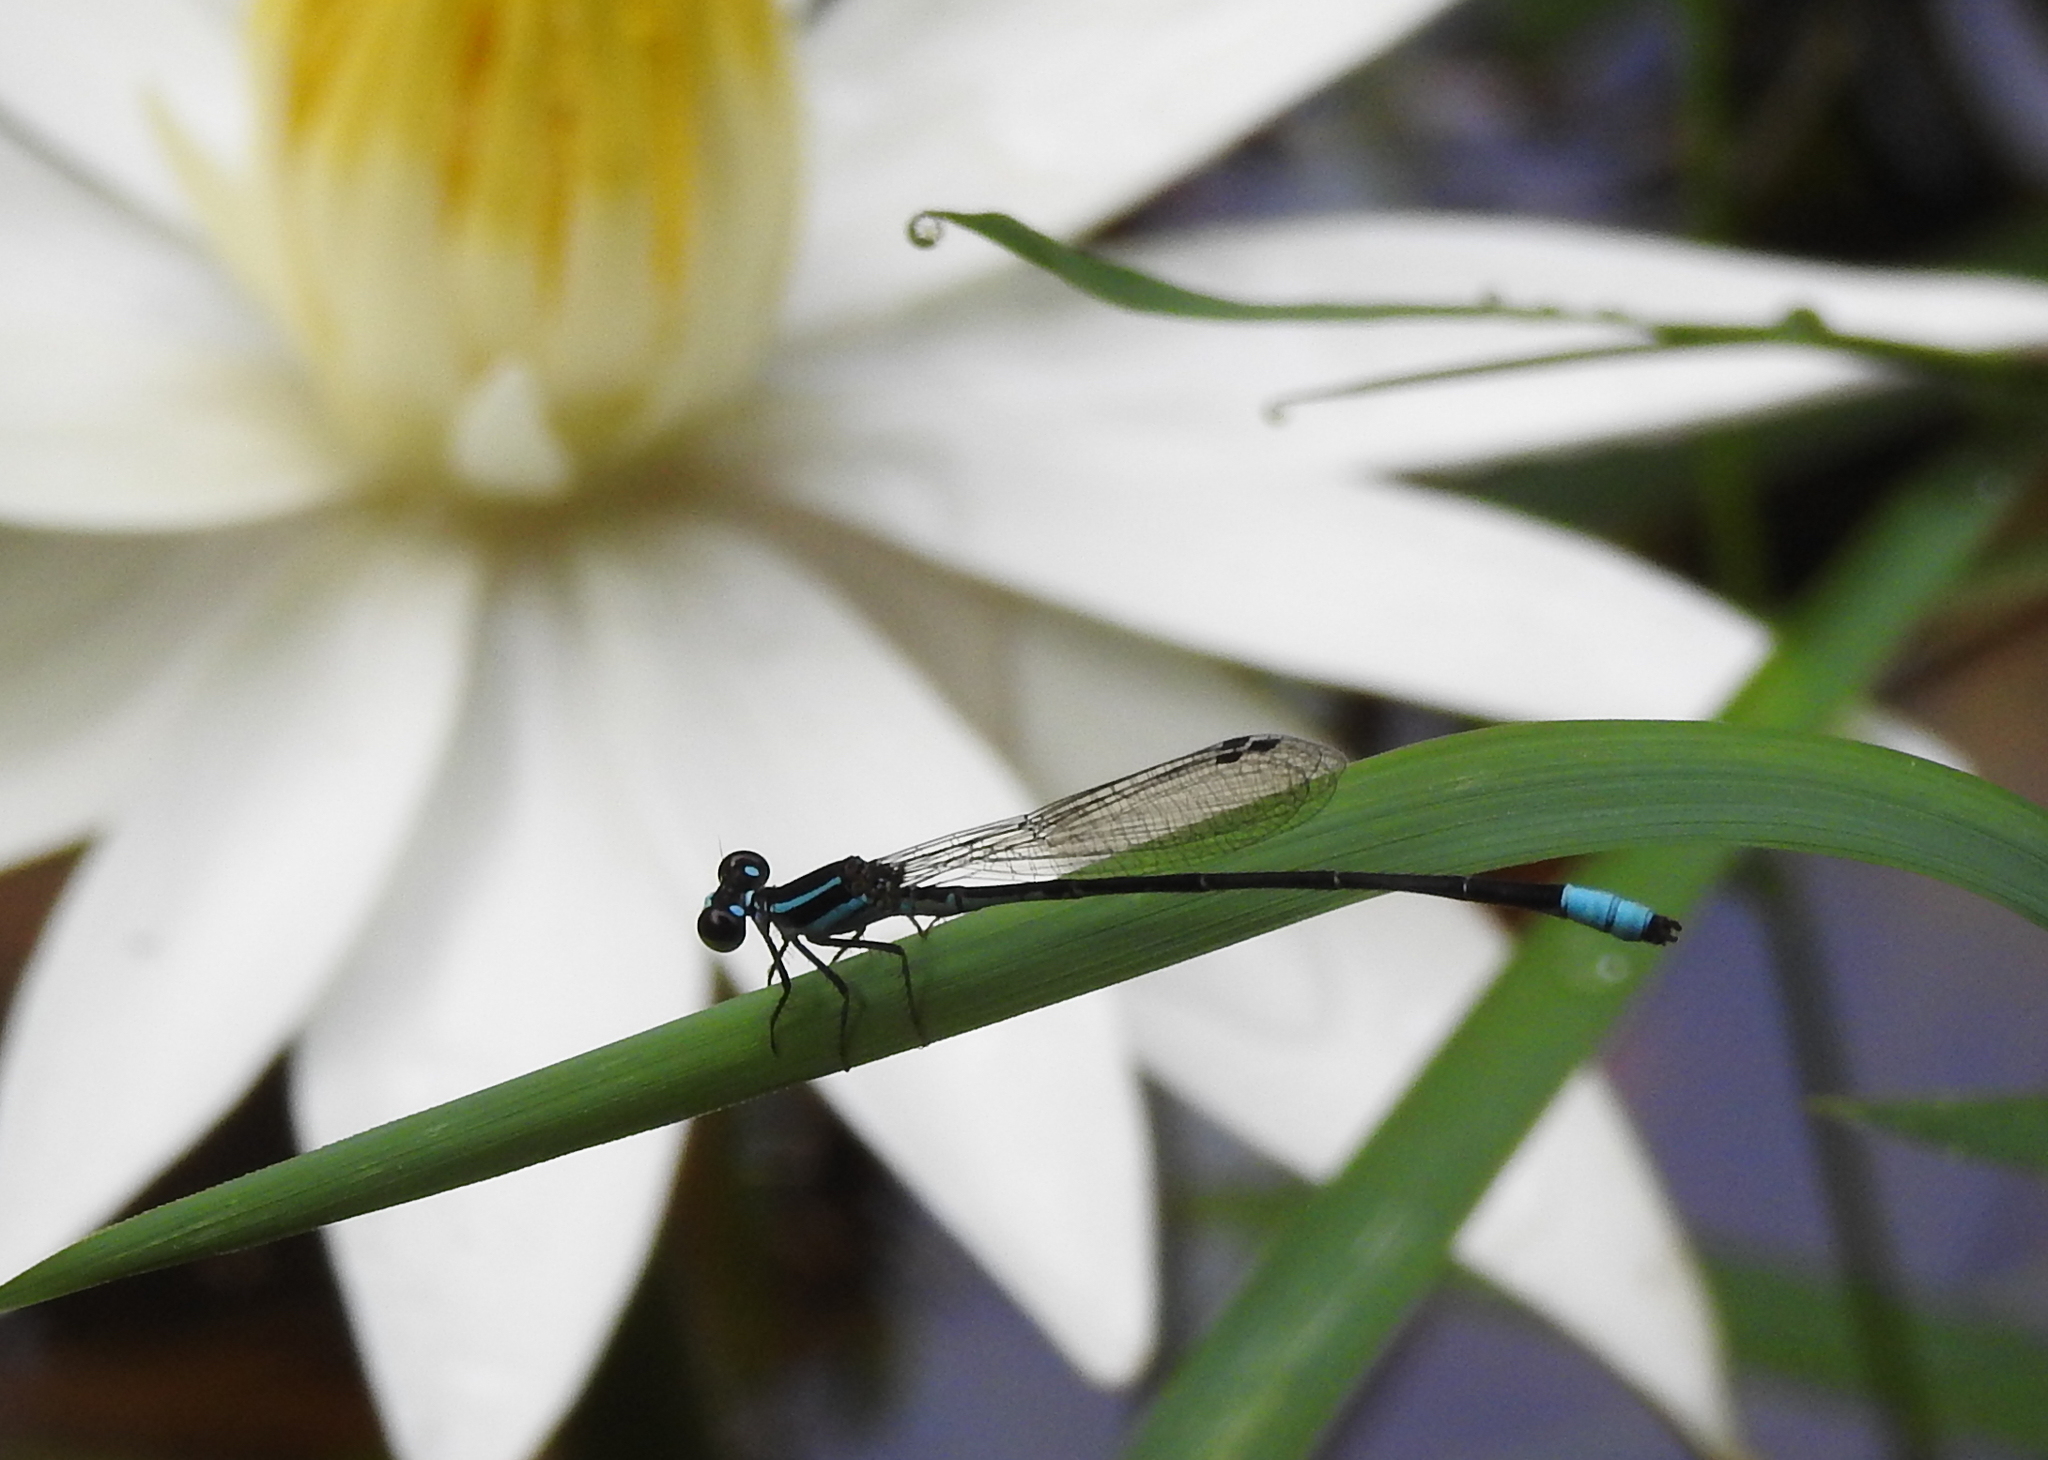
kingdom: Animalia
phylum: Arthropoda
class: Insecta
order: Odonata
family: Coenagrionidae
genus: Argiocnemis
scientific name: Argiocnemis rubescens
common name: Red-tipped shadefly
